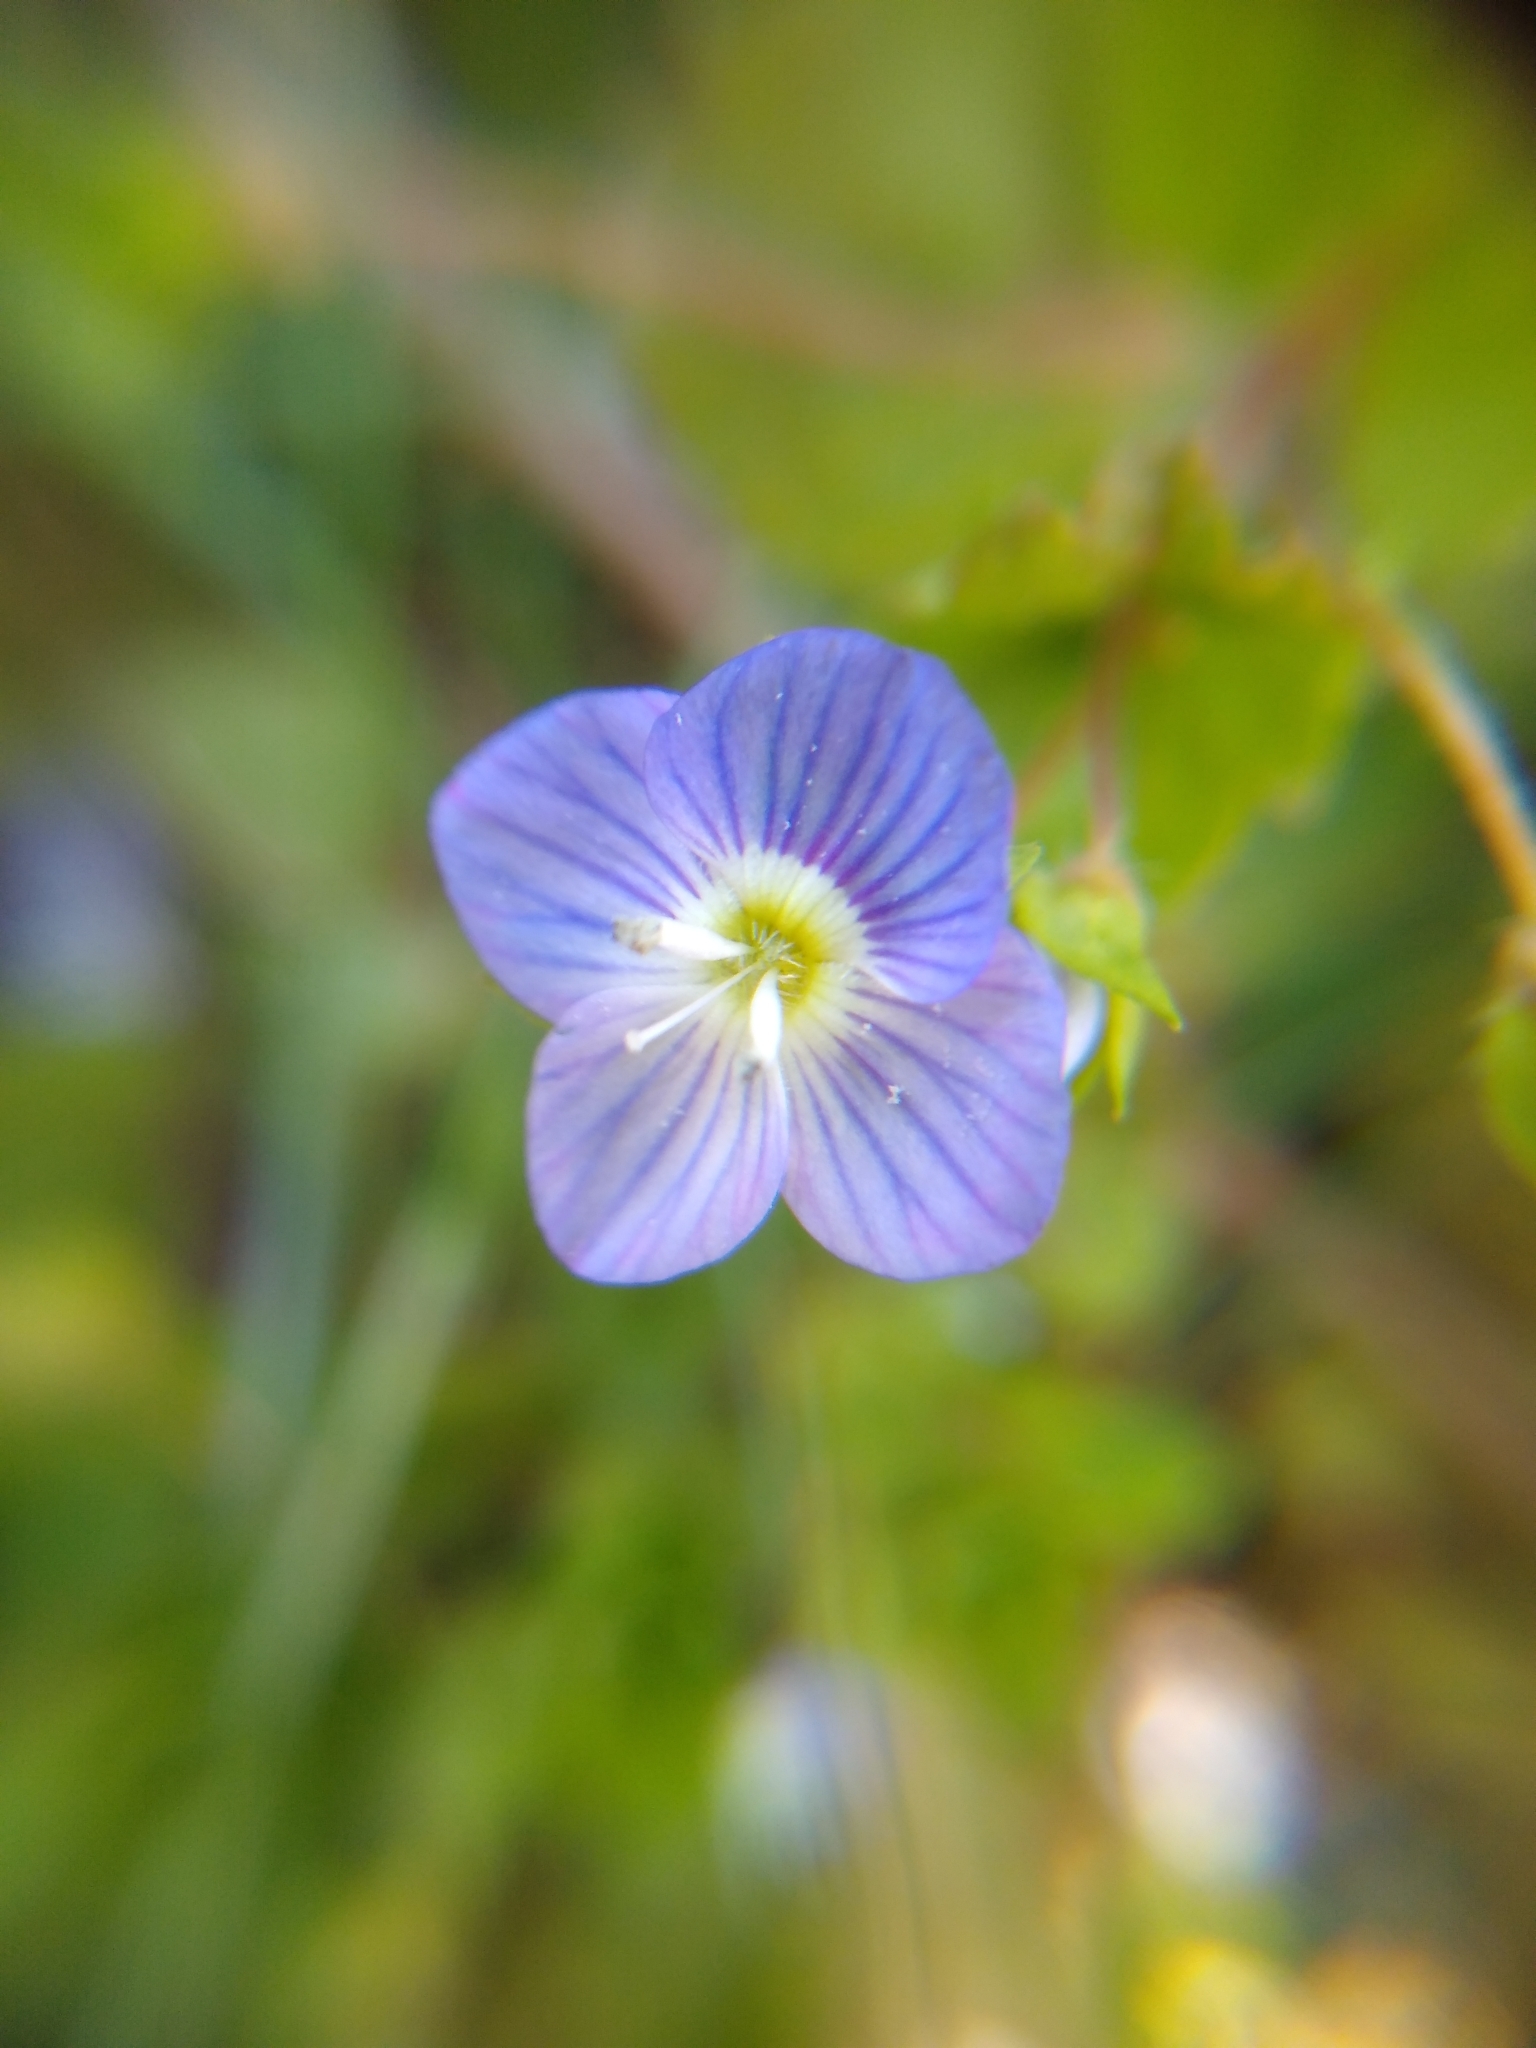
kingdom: Plantae
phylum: Tracheophyta
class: Magnoliopsida
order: Lamiales
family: Plantaginaceae
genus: Veronica
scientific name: Veronica persica
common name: Common field-speedwell
